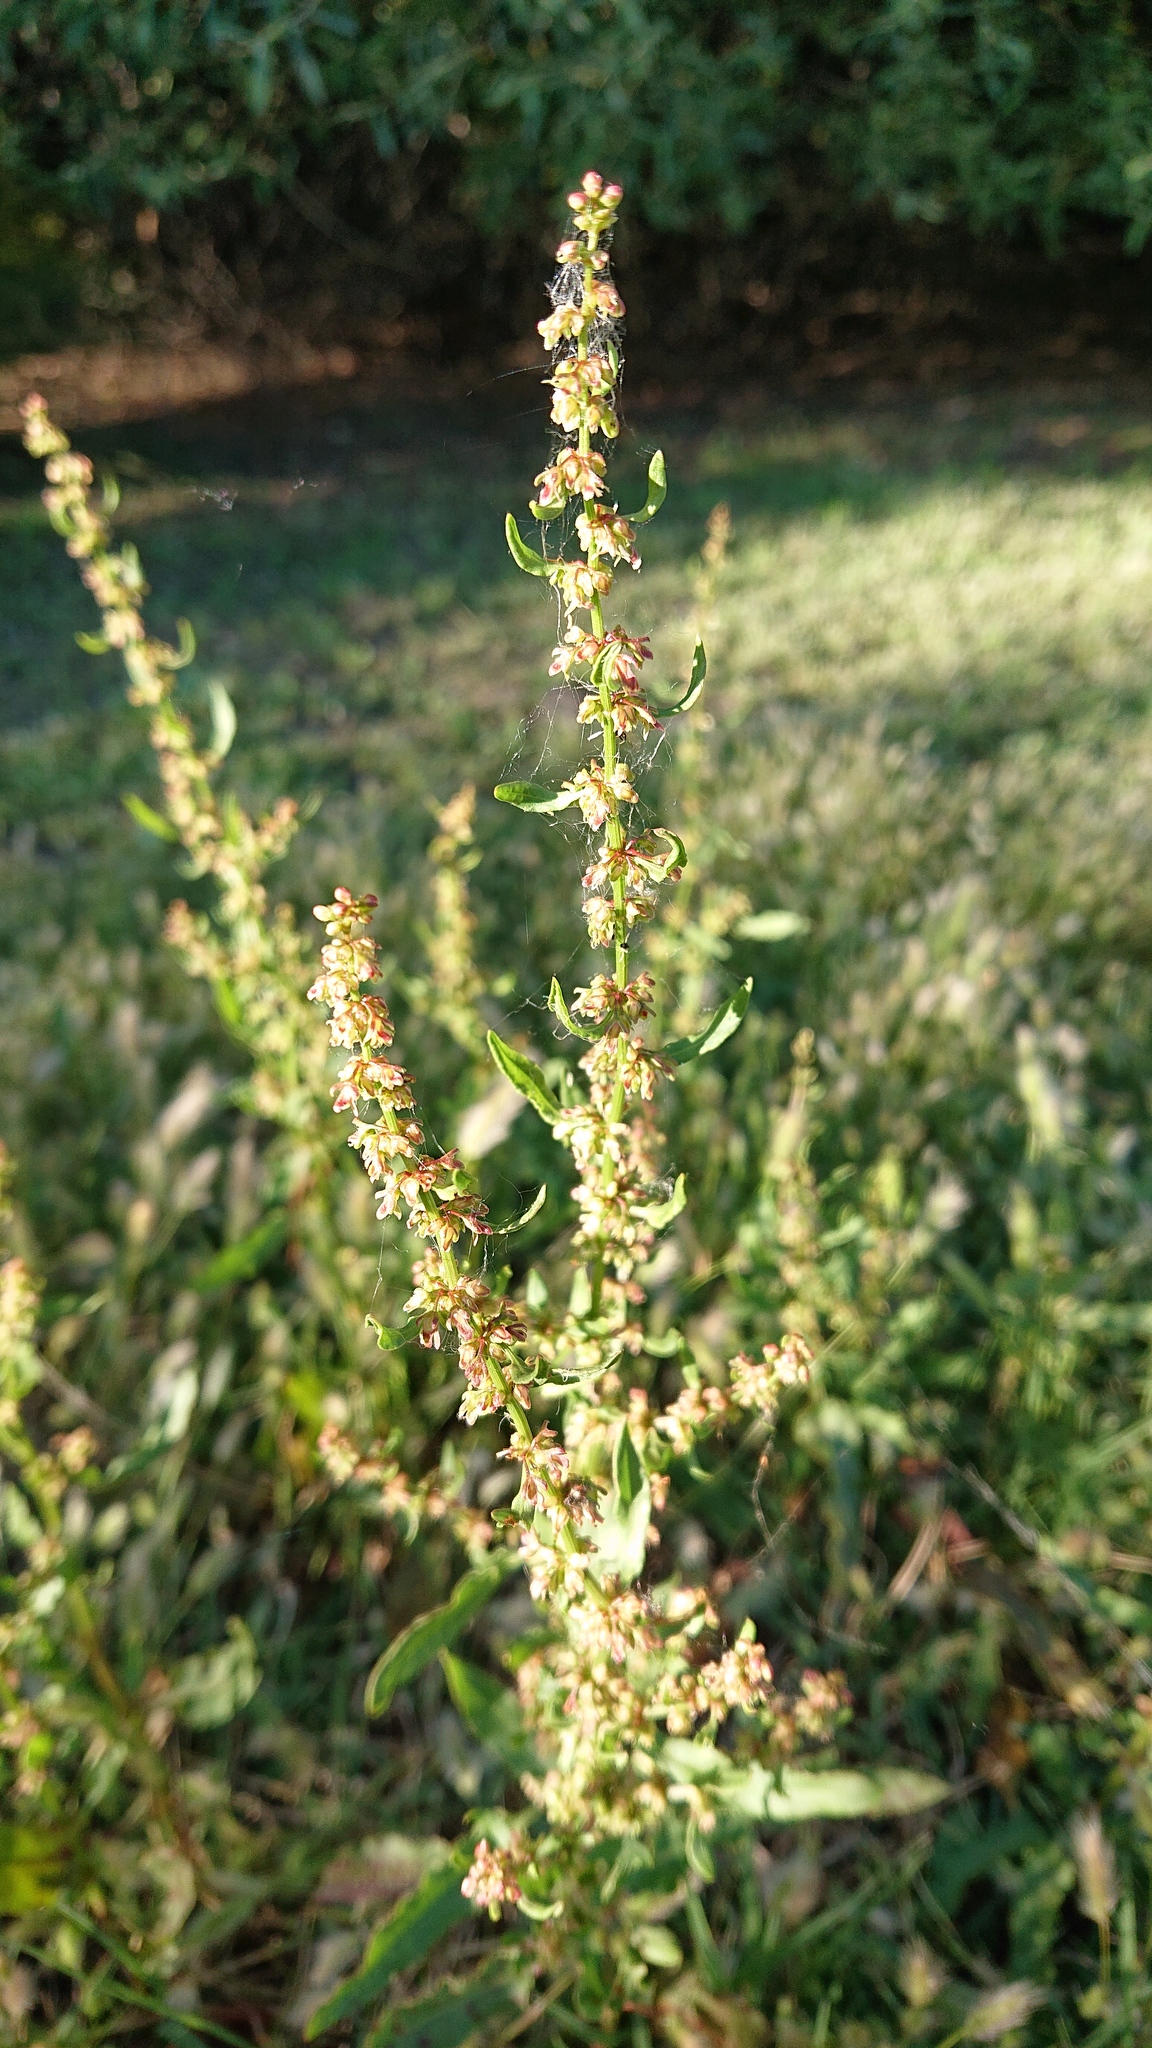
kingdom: Plantae
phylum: Tracheophyta
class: Magnoliopsida
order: Caryophyllales
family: Polygonaceae
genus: Rumex
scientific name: Rumex papillaris
